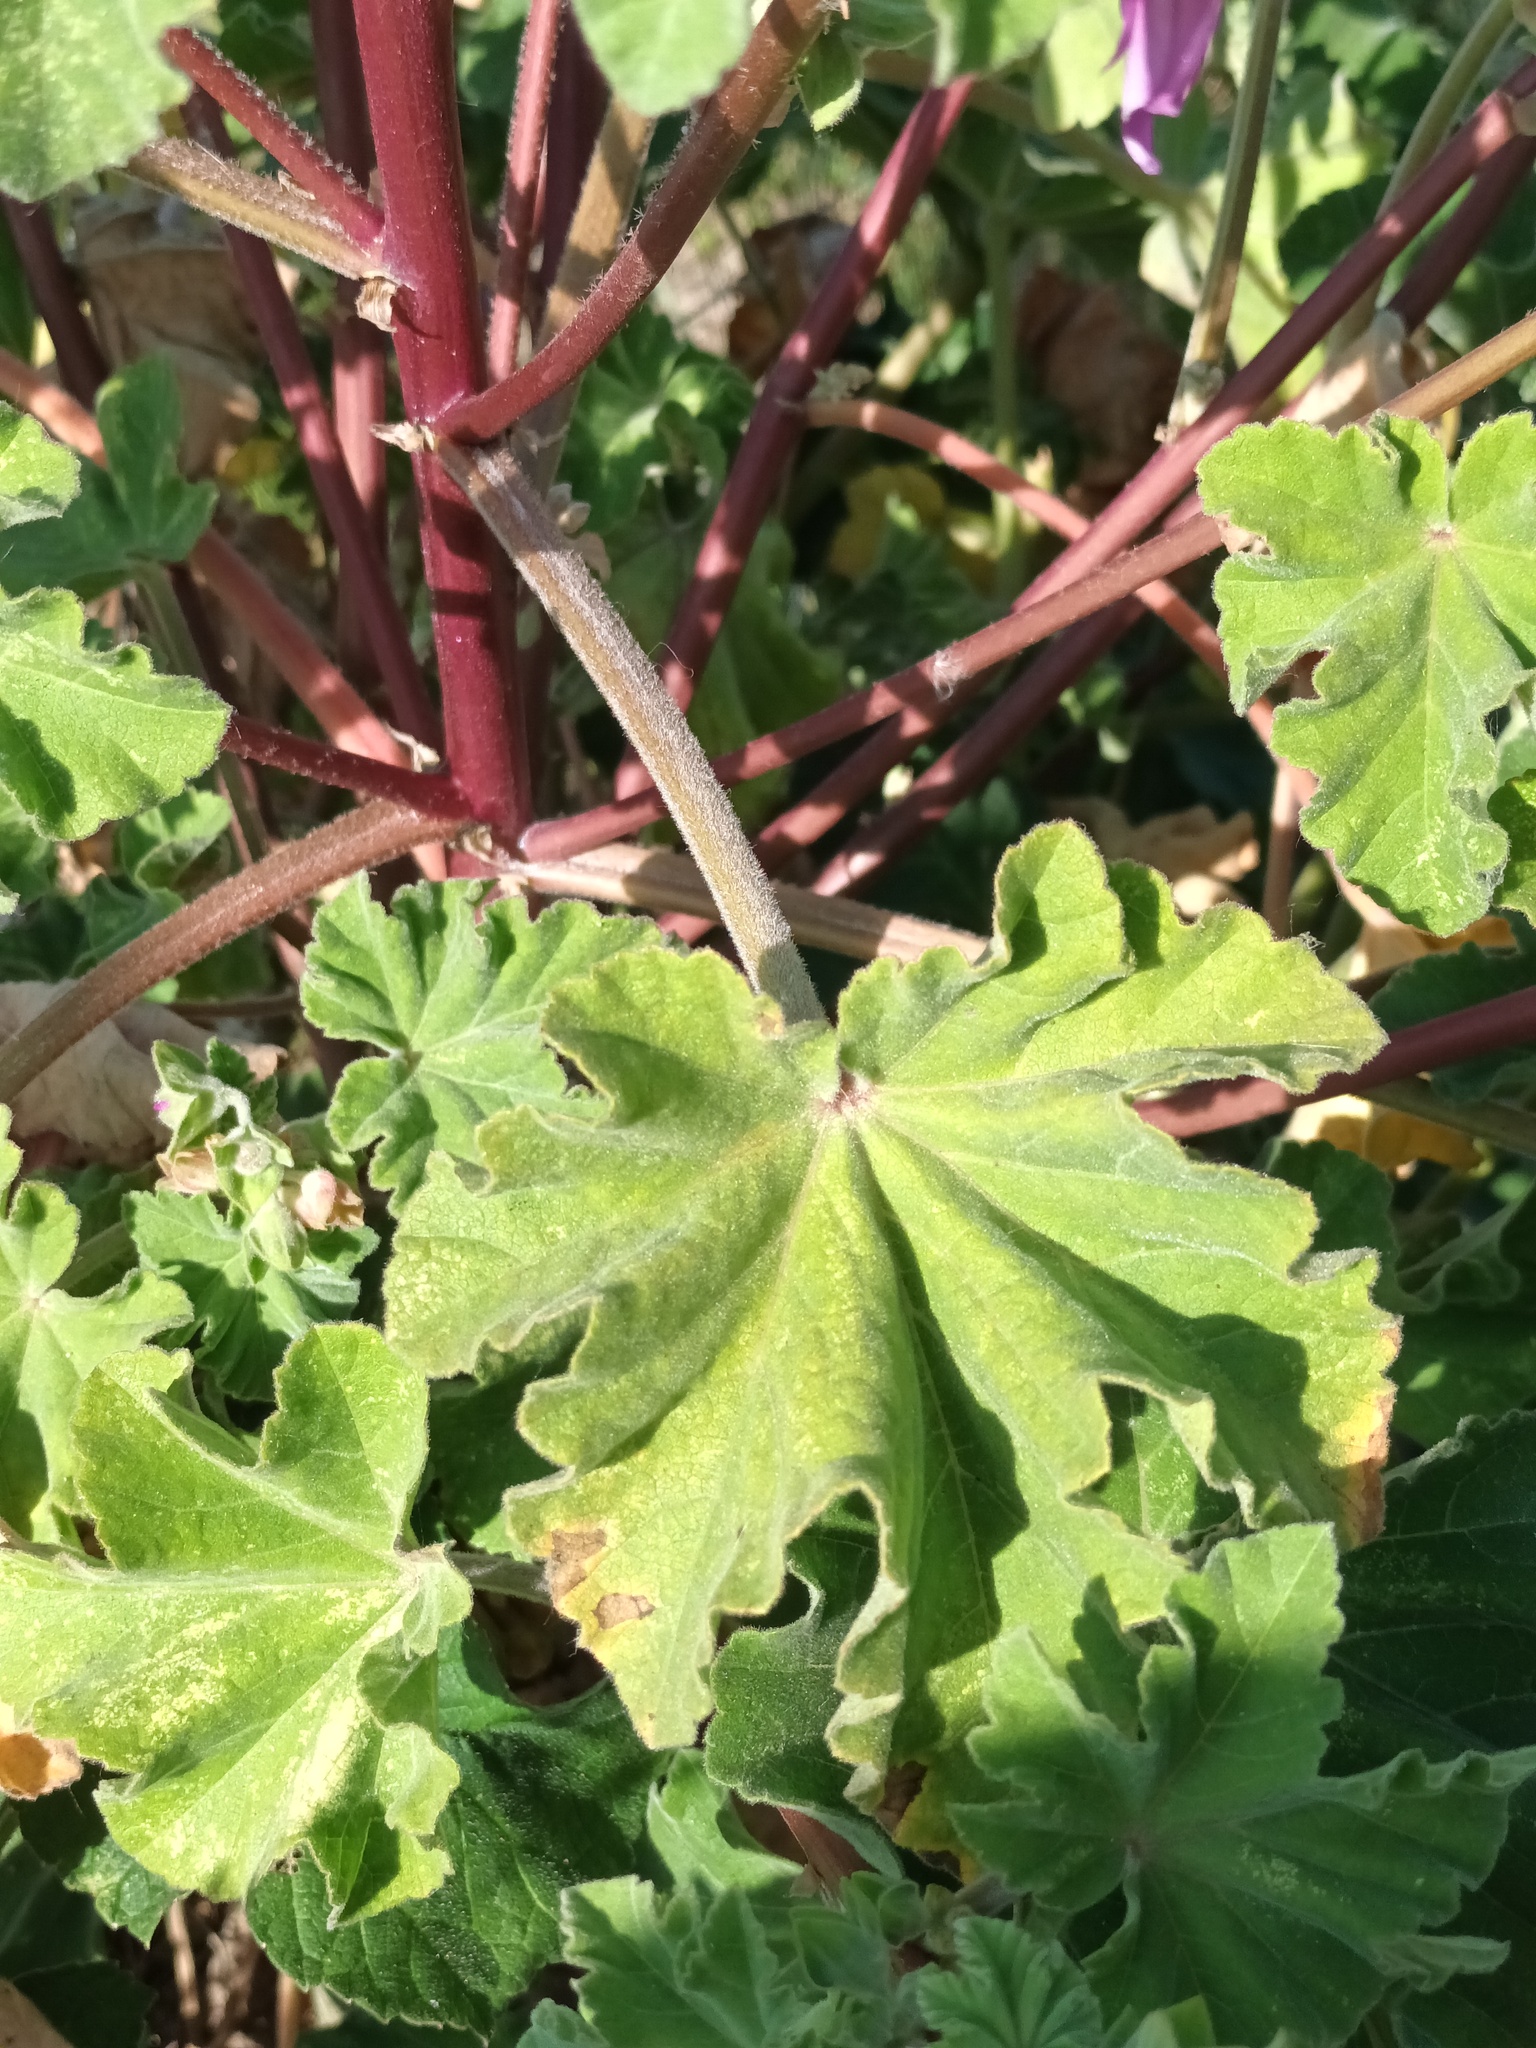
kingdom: Plantae
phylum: Tracheophyta
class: Magnoliopsida
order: Malvales
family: Malvaceae
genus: Malva
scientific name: Malva arborea
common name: Tree mallow
